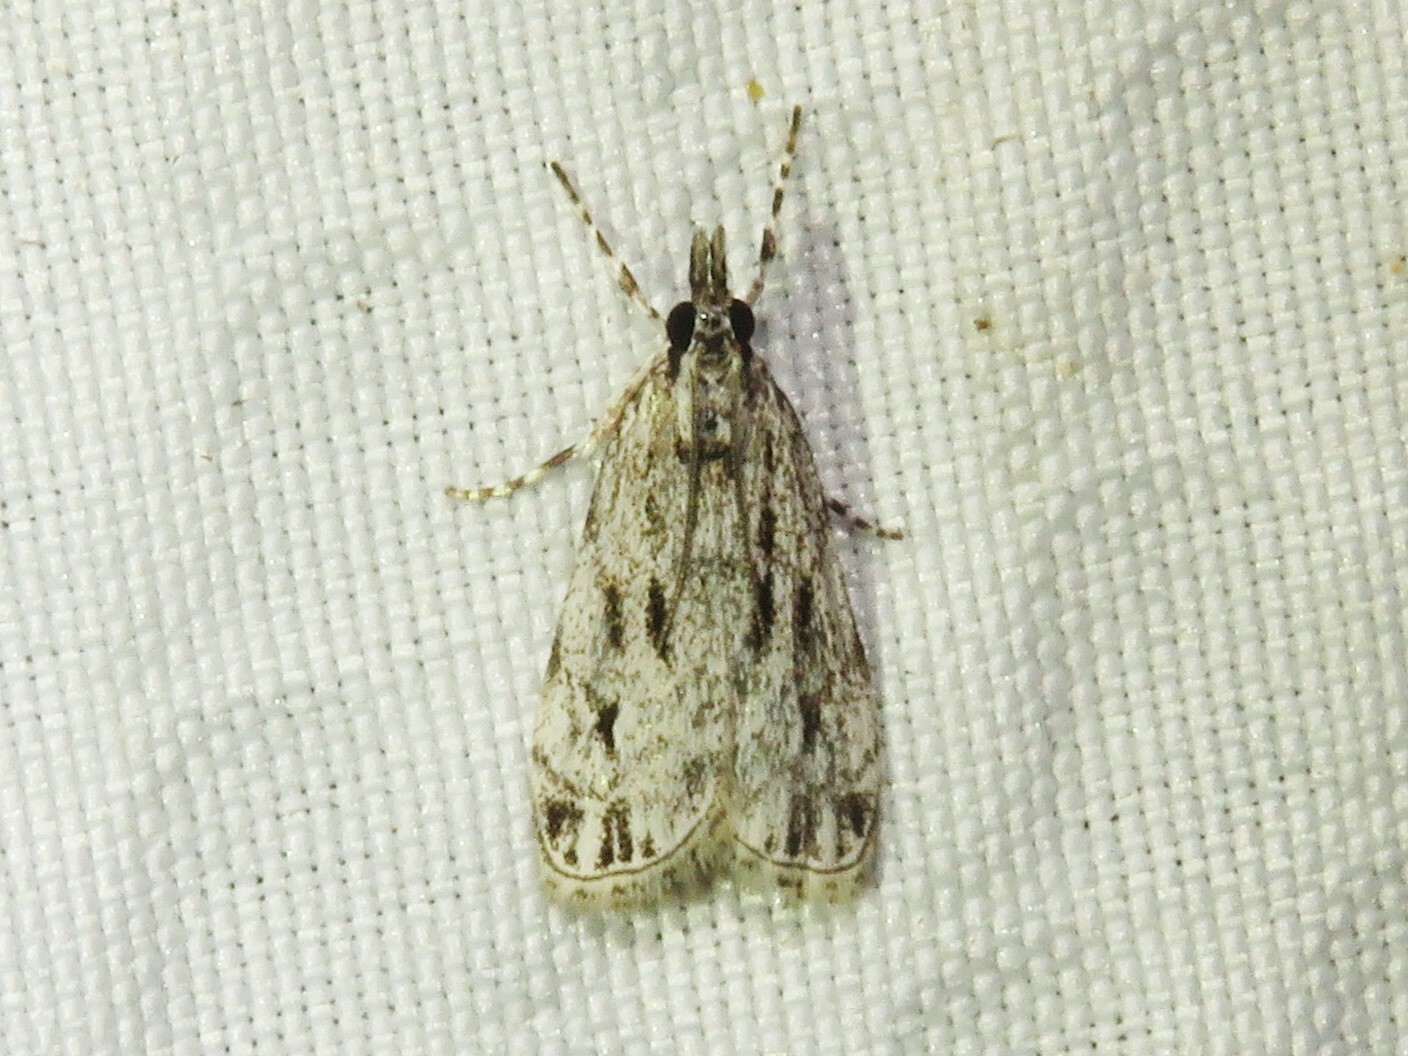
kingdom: Animalia
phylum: Arthropoda
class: Insecta
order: Lepidoptera
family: Crambidae
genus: Eudonia
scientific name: Eudonia strigalis
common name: Striped eudonia moth
